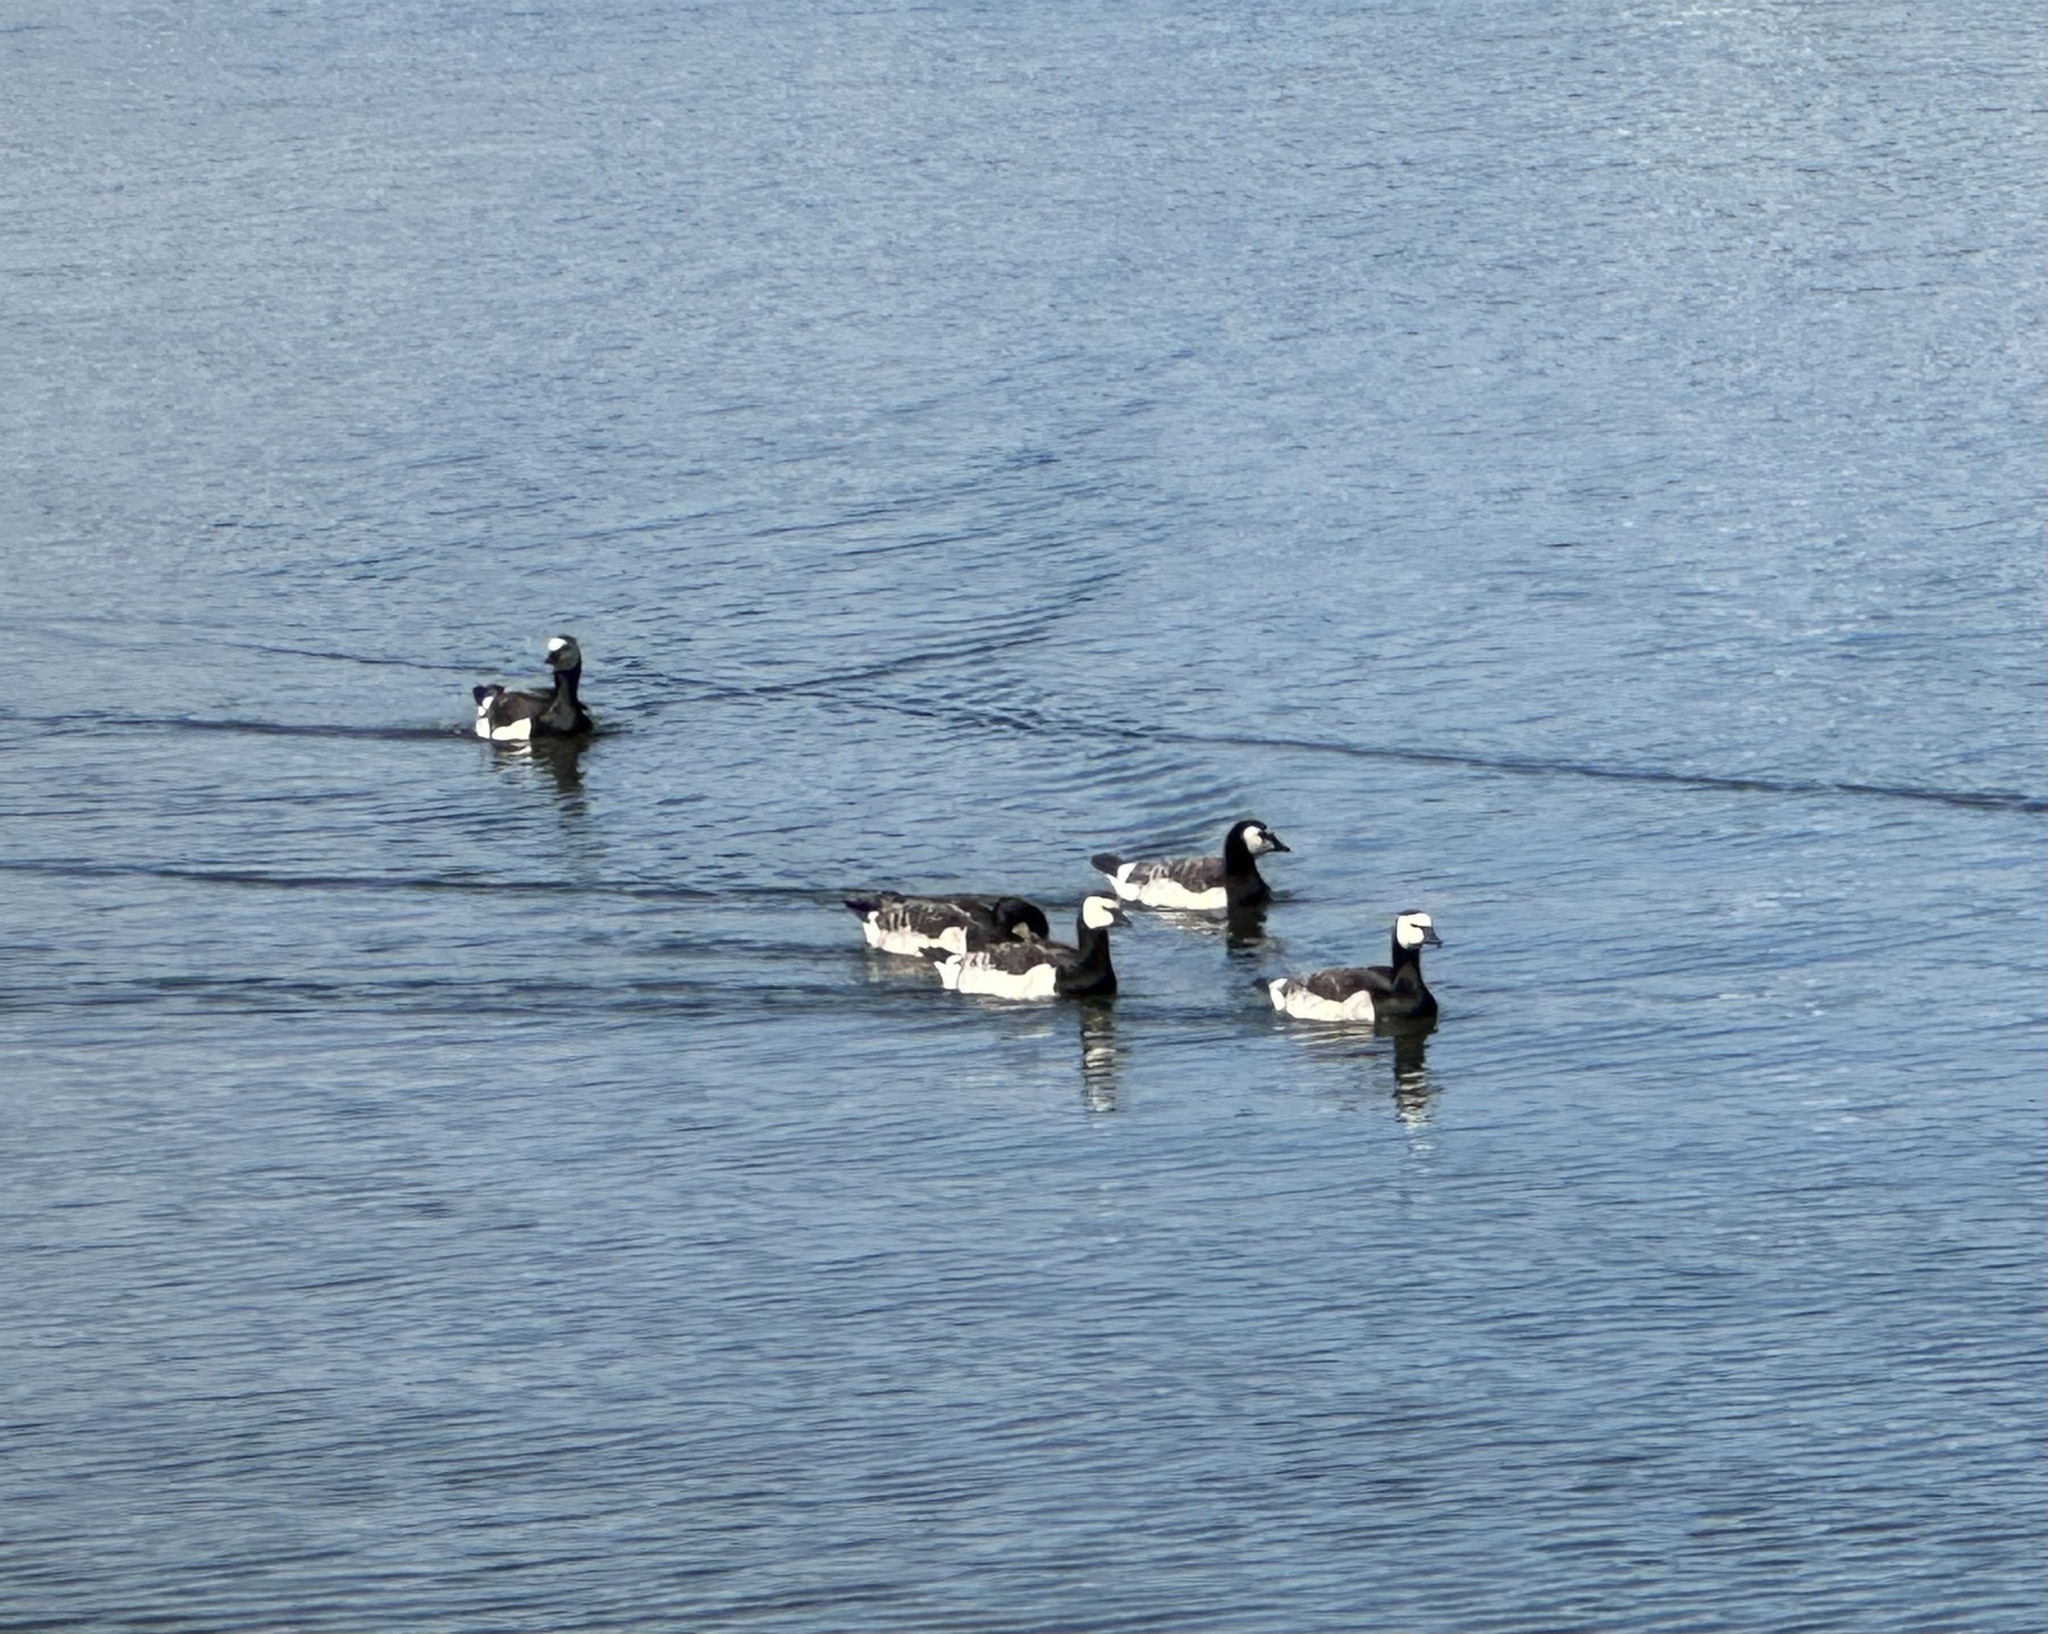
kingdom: Animalia
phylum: Chordata
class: Aves
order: Anseriformes
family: Anatidae
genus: Branta
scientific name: Branta leucopsis
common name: Barnacle goose
